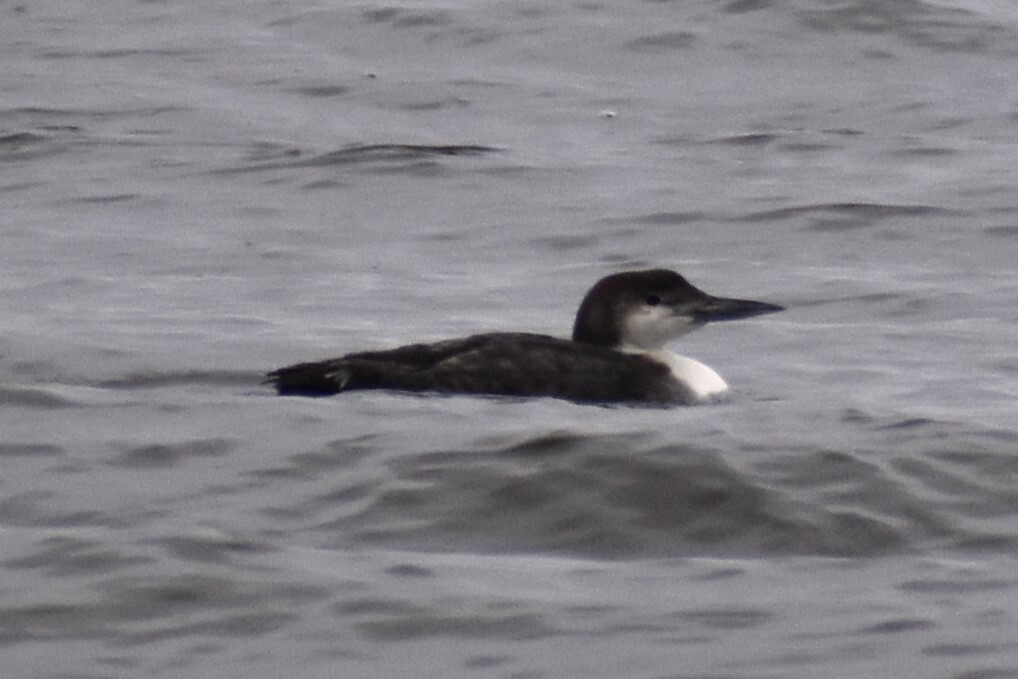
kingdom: Animalia
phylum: Chordata
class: Aves
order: Gaviiformes
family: Gaviidae
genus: Gavia
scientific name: Gavia immer
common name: Common loon
